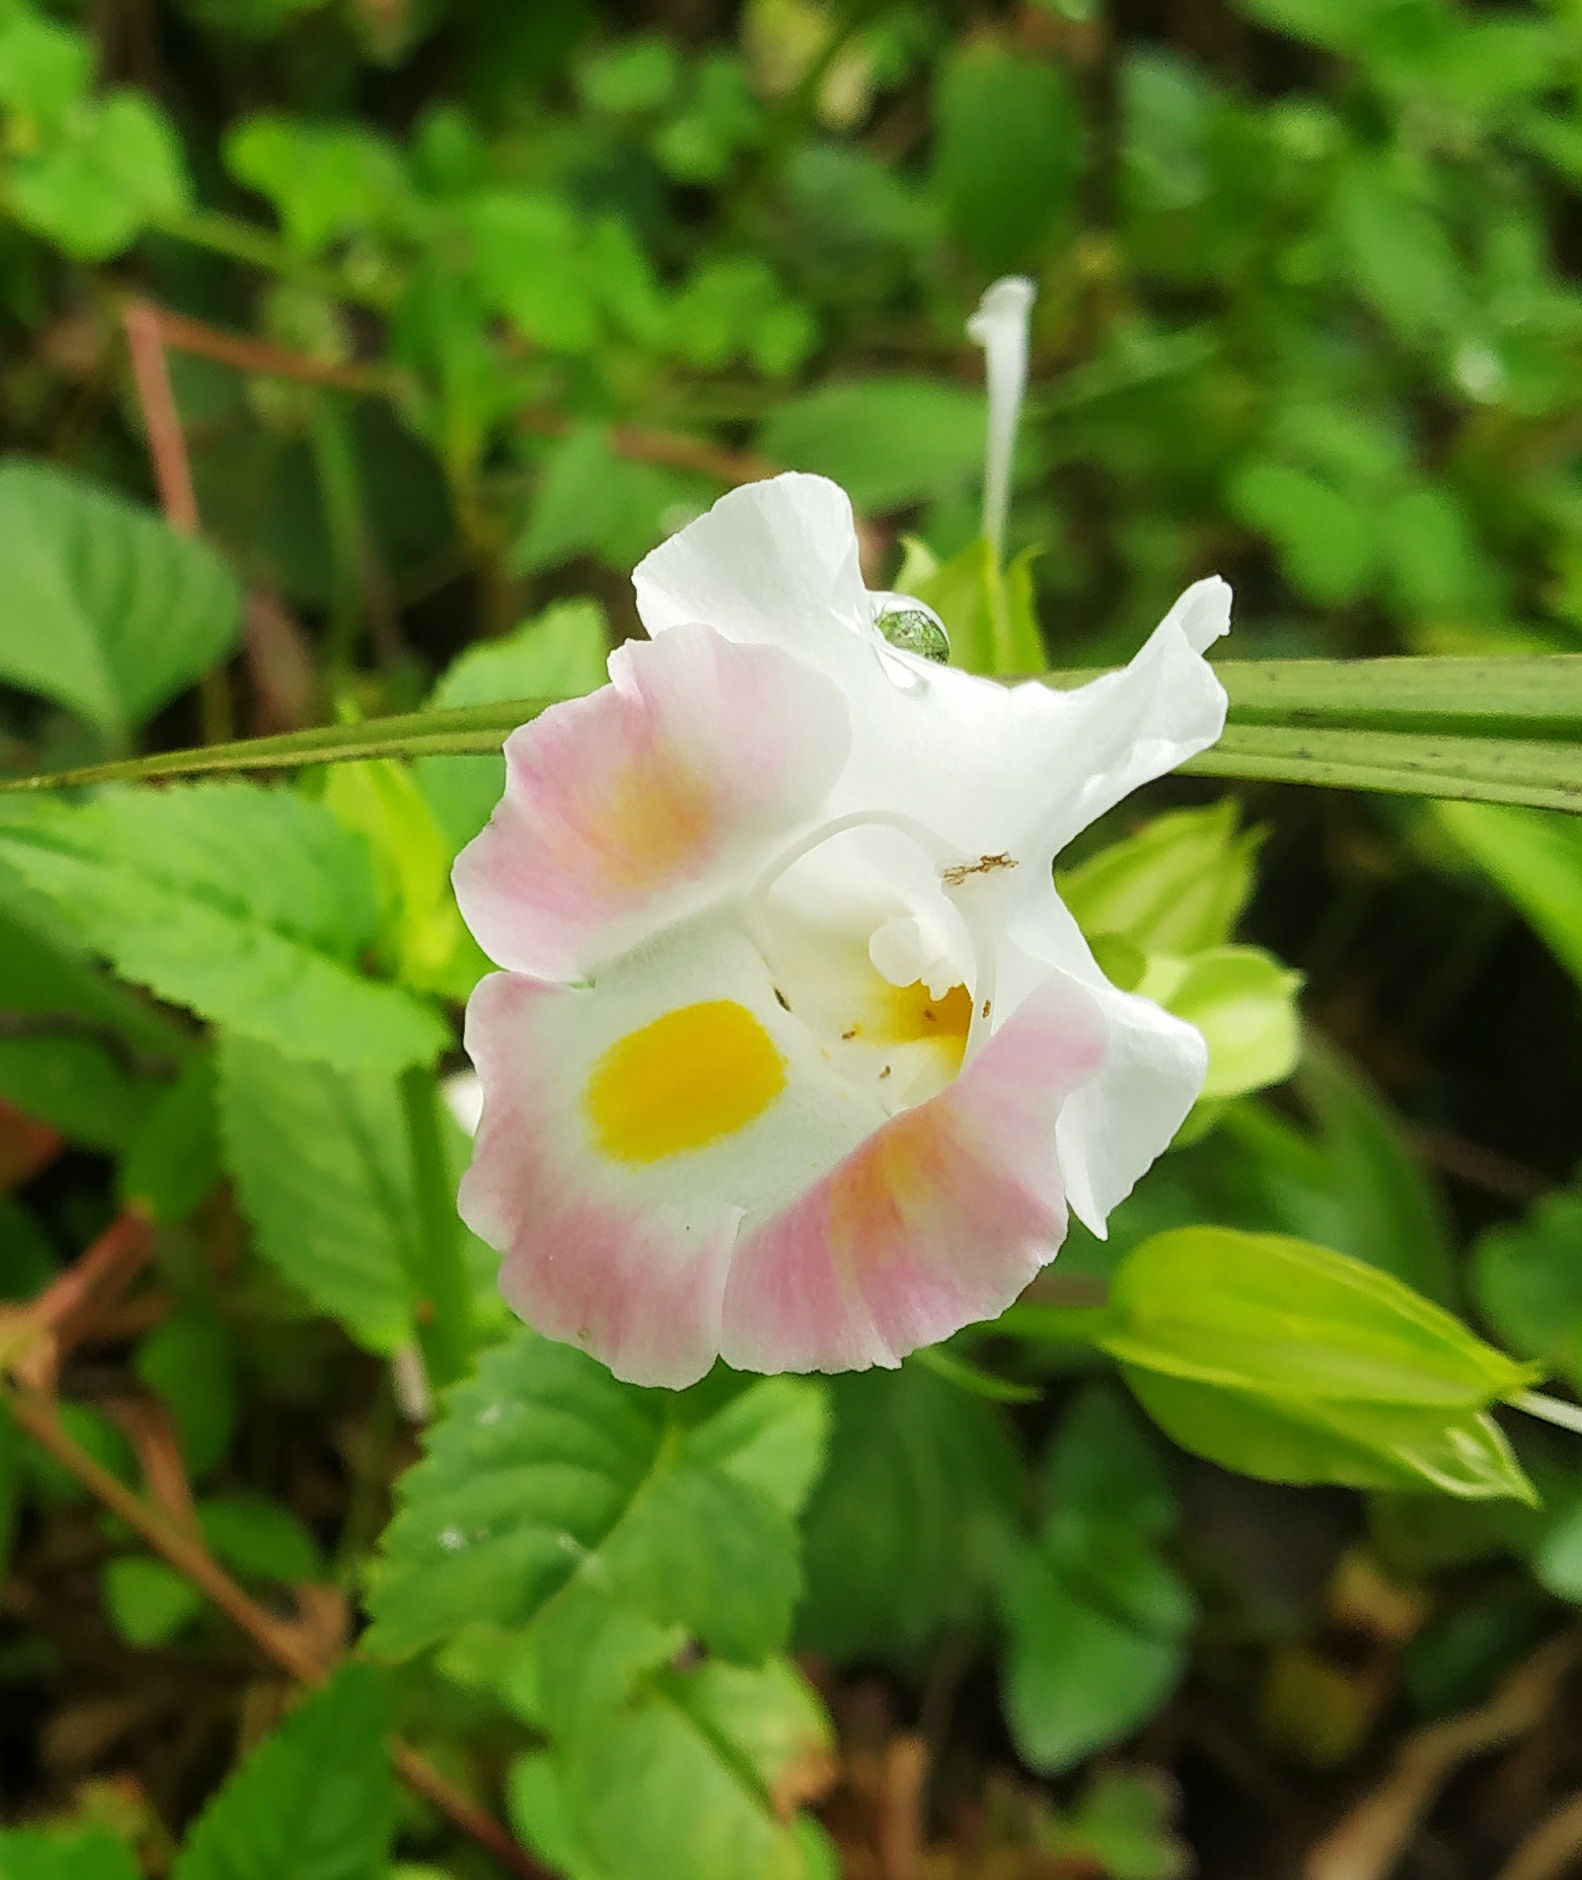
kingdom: Plantae
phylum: Tracheophyta
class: Magnoliopsida
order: Lamiales
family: Linderniaceae
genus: Torenia
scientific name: Torenia fournieri
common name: Bluewings
